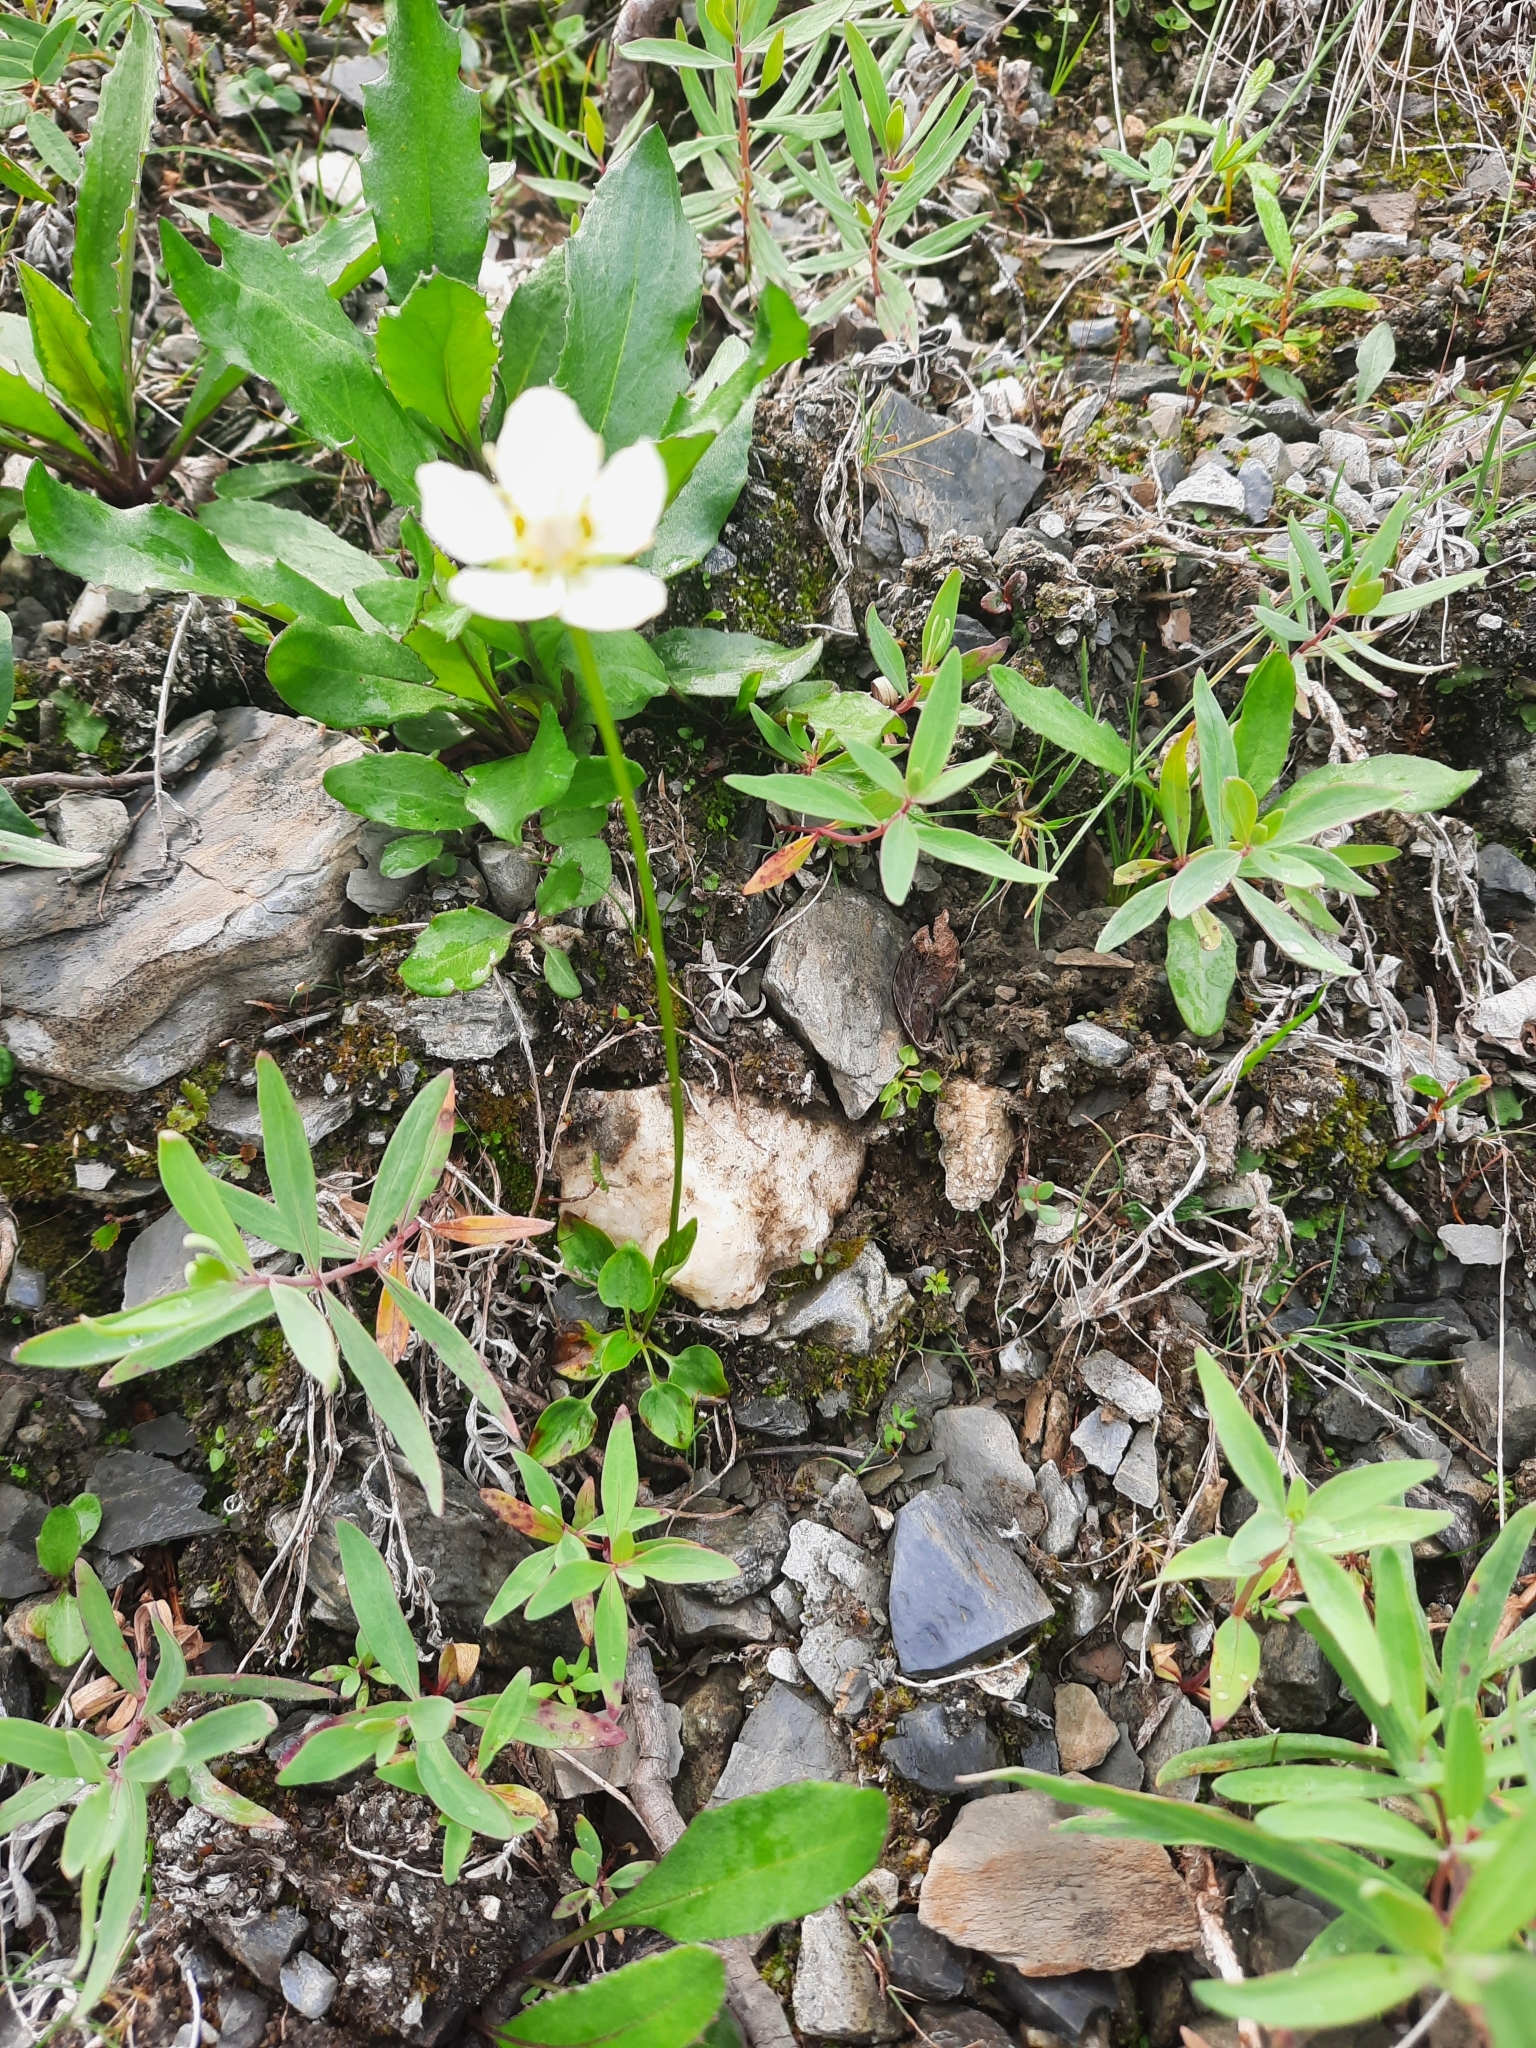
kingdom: Plantae
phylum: Tracheophyta
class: Magnoliopsida
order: Celastrales
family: Parnassiaceae
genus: Parnassia
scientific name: Parnassia palustris
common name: Grass-of-parnassus
